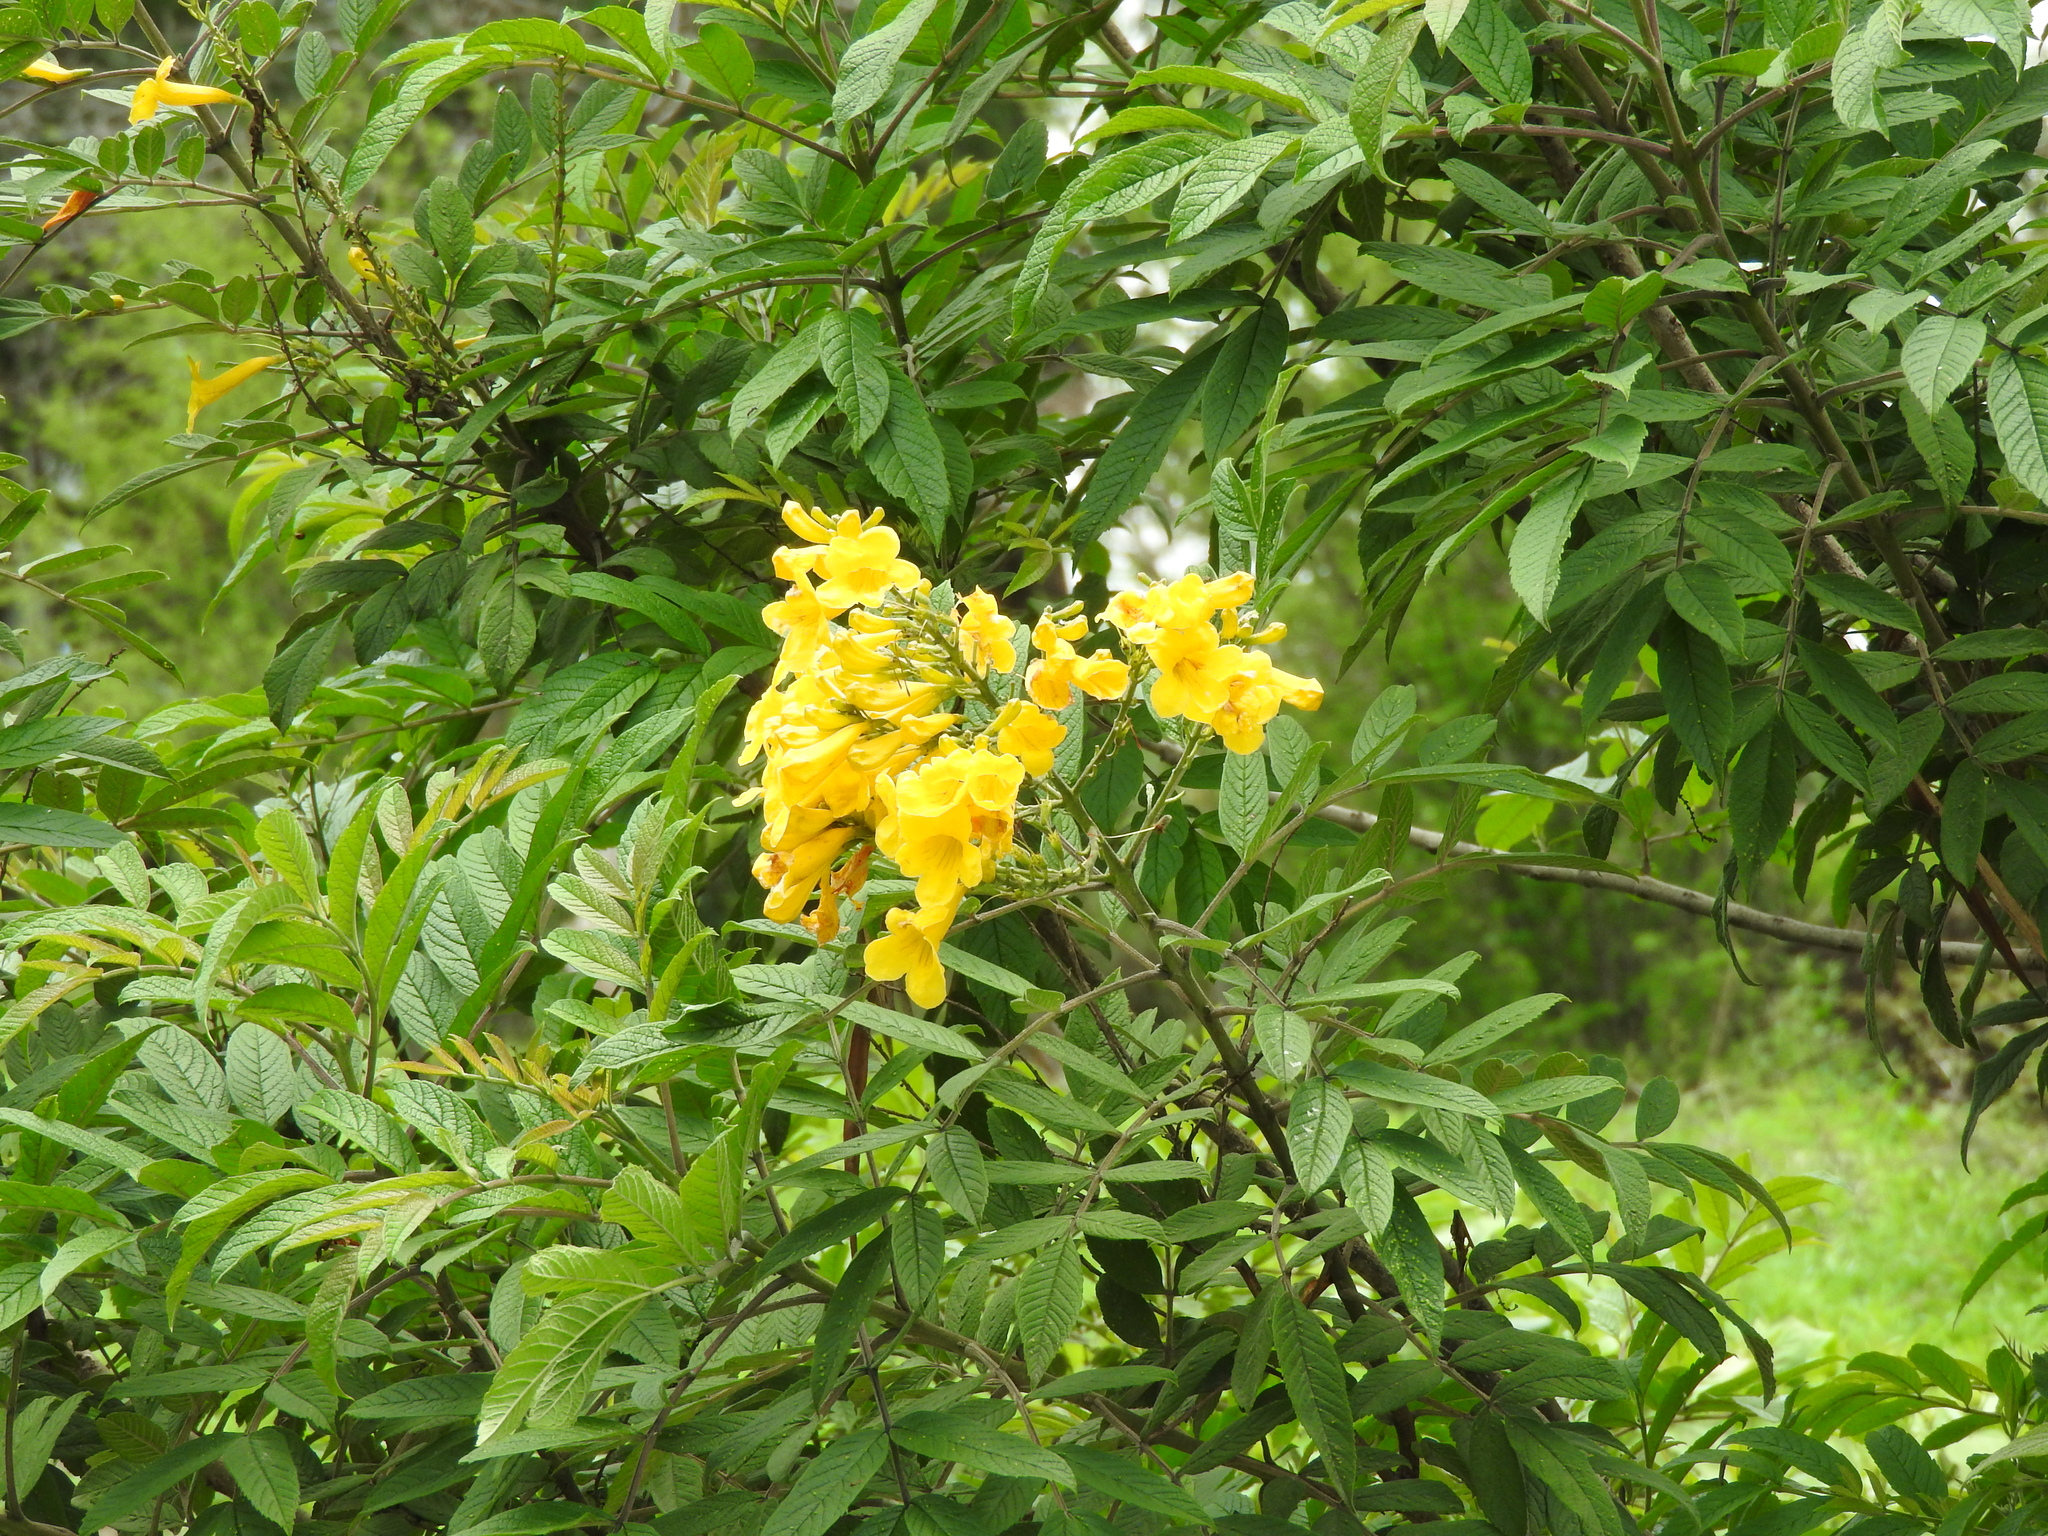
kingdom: Plantae
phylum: Tracheophyta
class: Magnoliopsida
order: Fabales
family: Fabaceae
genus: Senna
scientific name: Senna multiglandulosa
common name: Glandular senna
